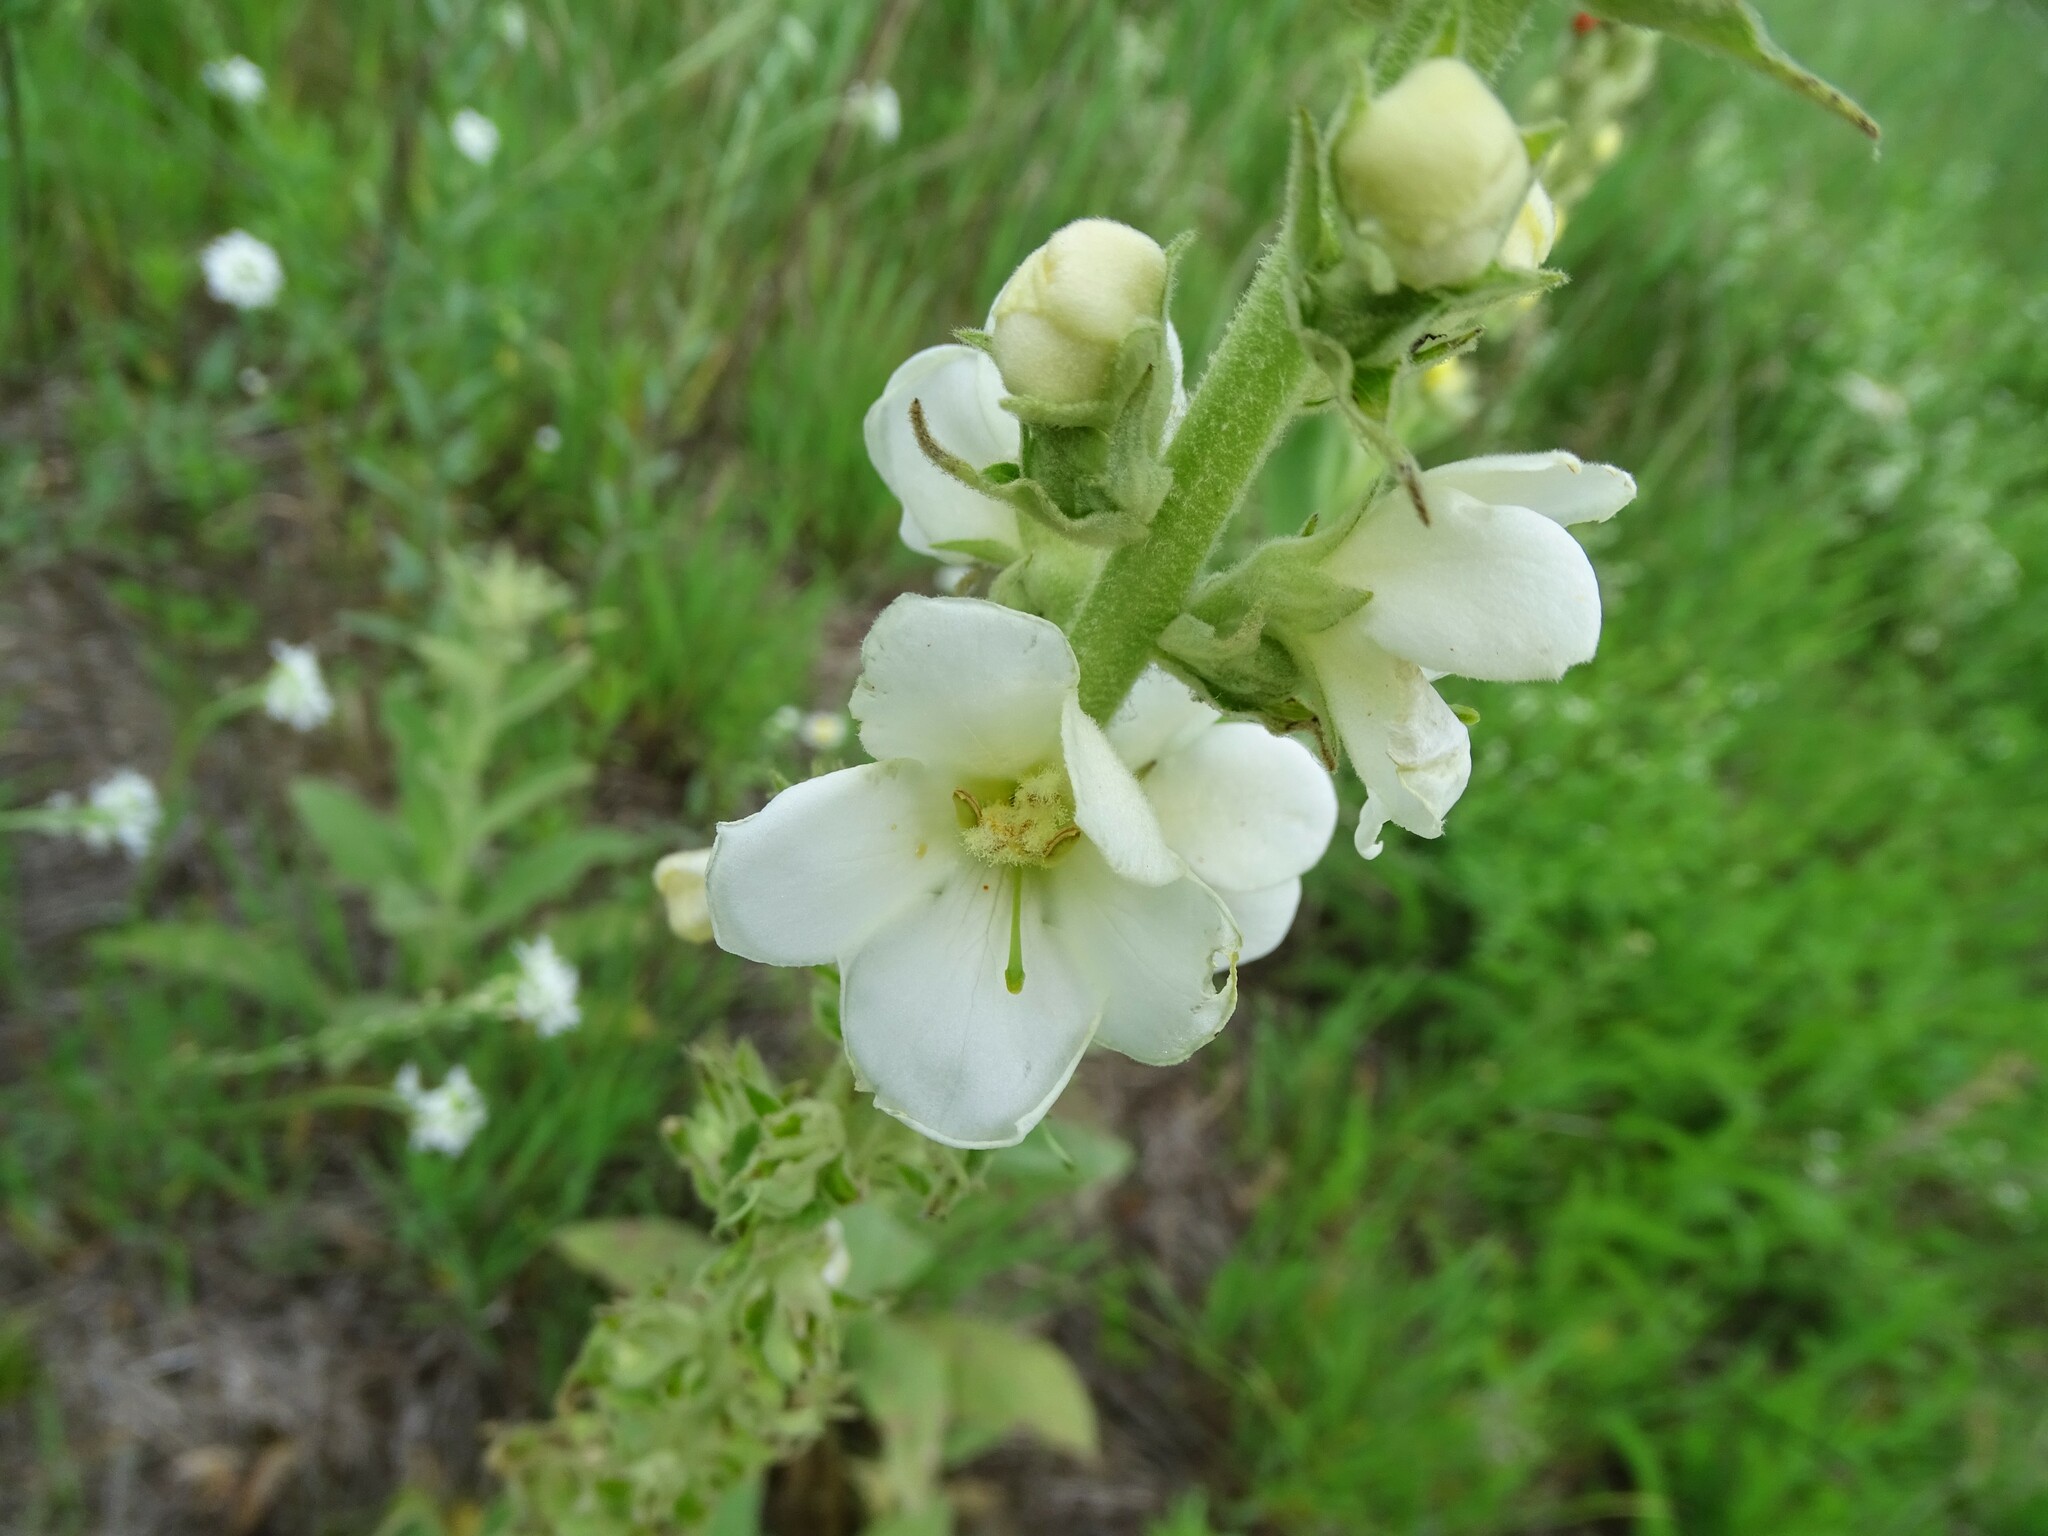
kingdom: Plantae
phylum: Tracheophyta
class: Magnoliopsida
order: Lamiales
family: Scrophulariaceae
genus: Verbascum
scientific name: Verbascum lychnitis
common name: White mullein
